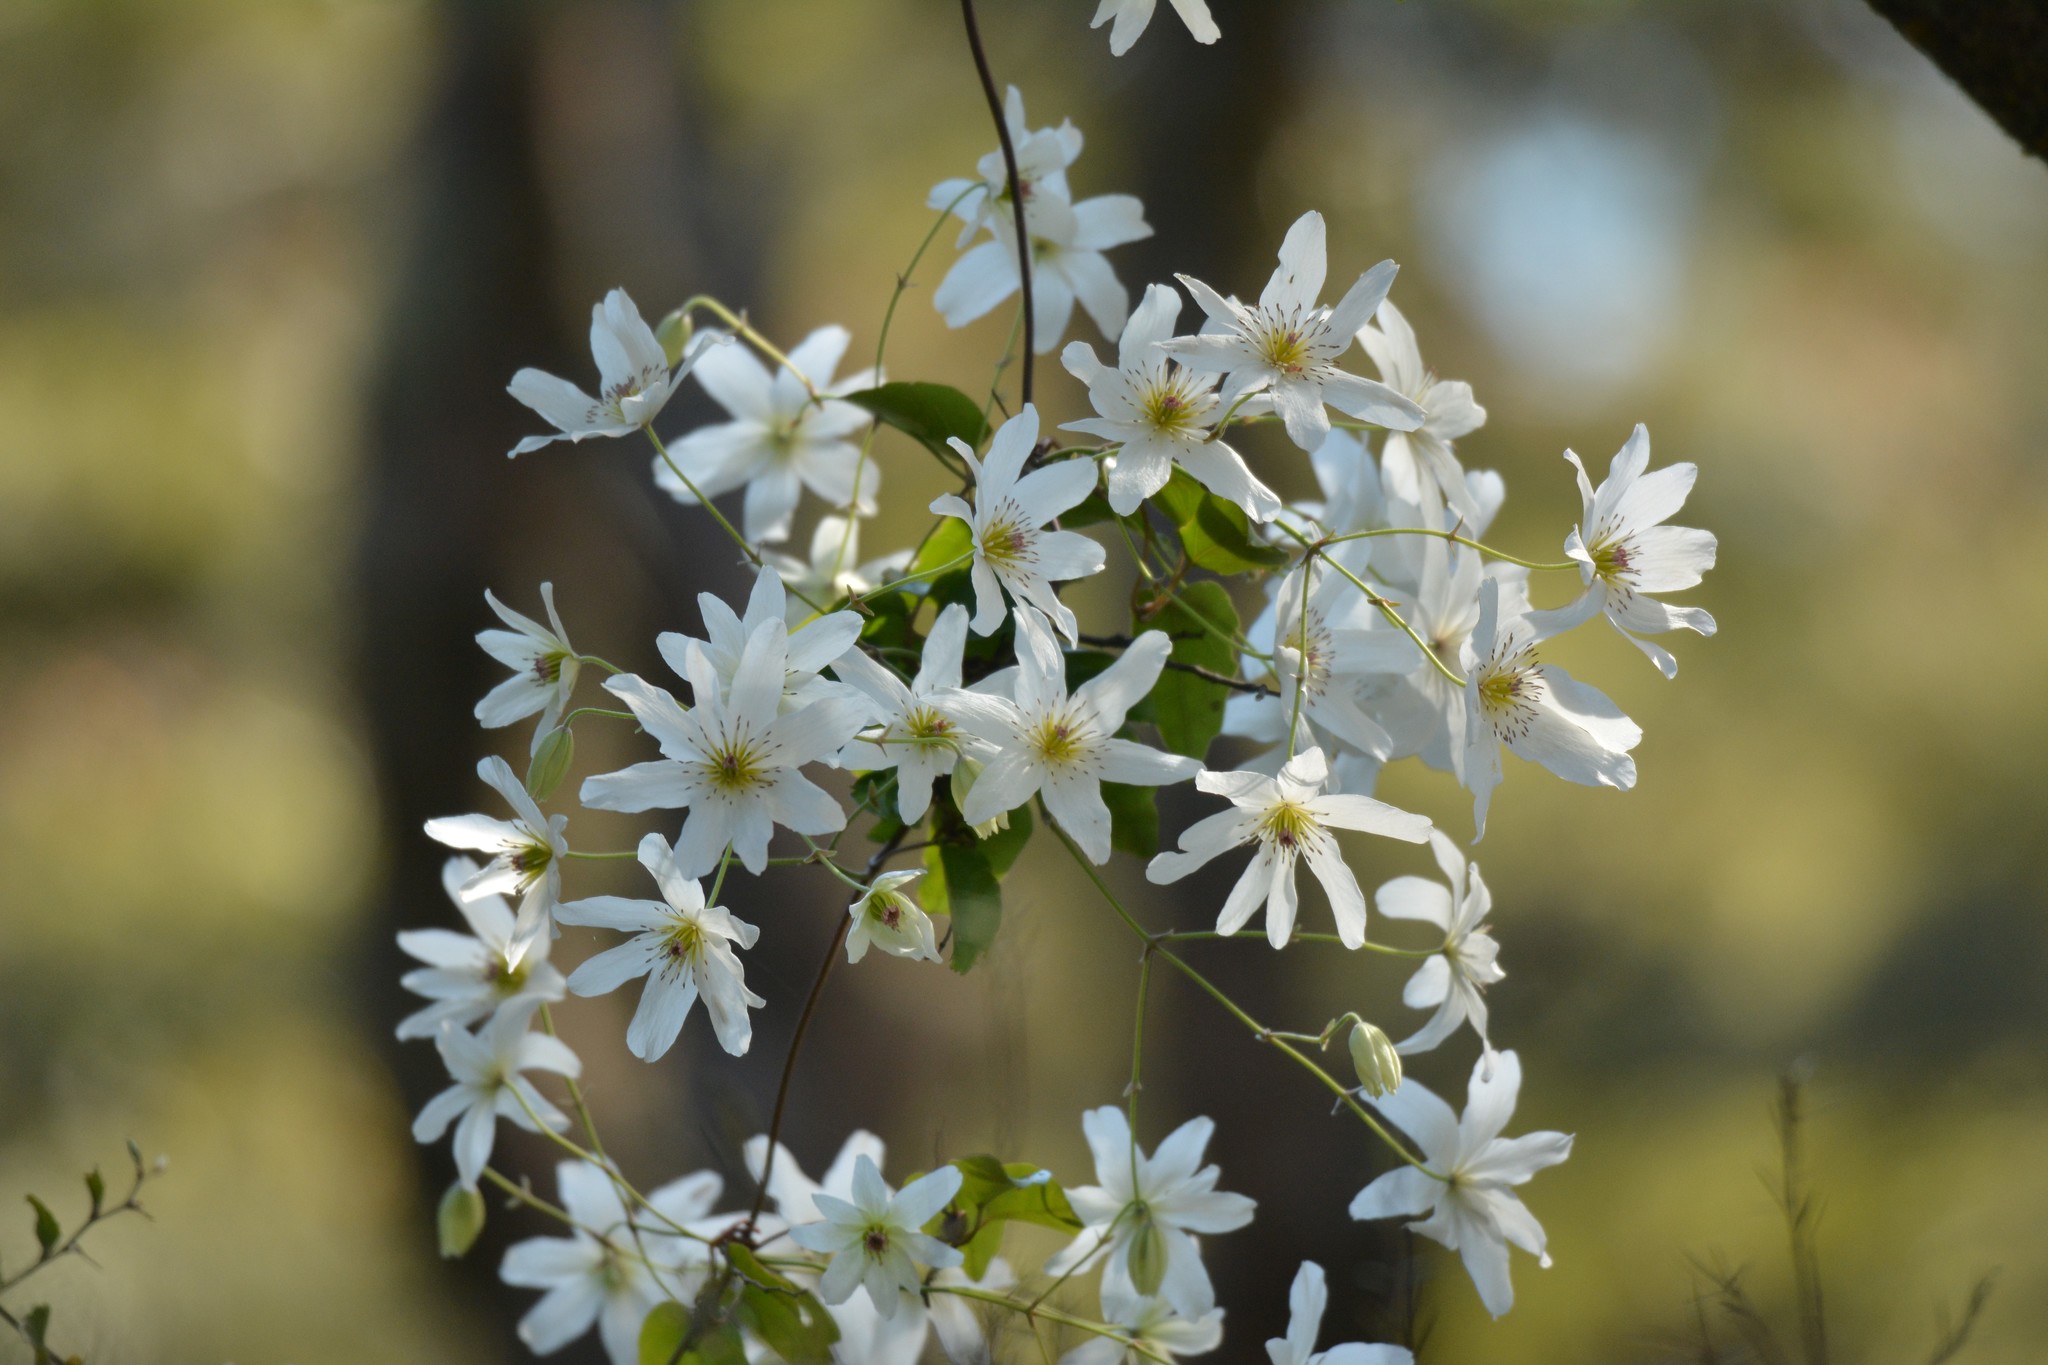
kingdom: Plantae
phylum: Tracheophyta
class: Magnoliopsida
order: Ranunculales
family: Ranunculaceae
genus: Clematis
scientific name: Clematis paniculata
